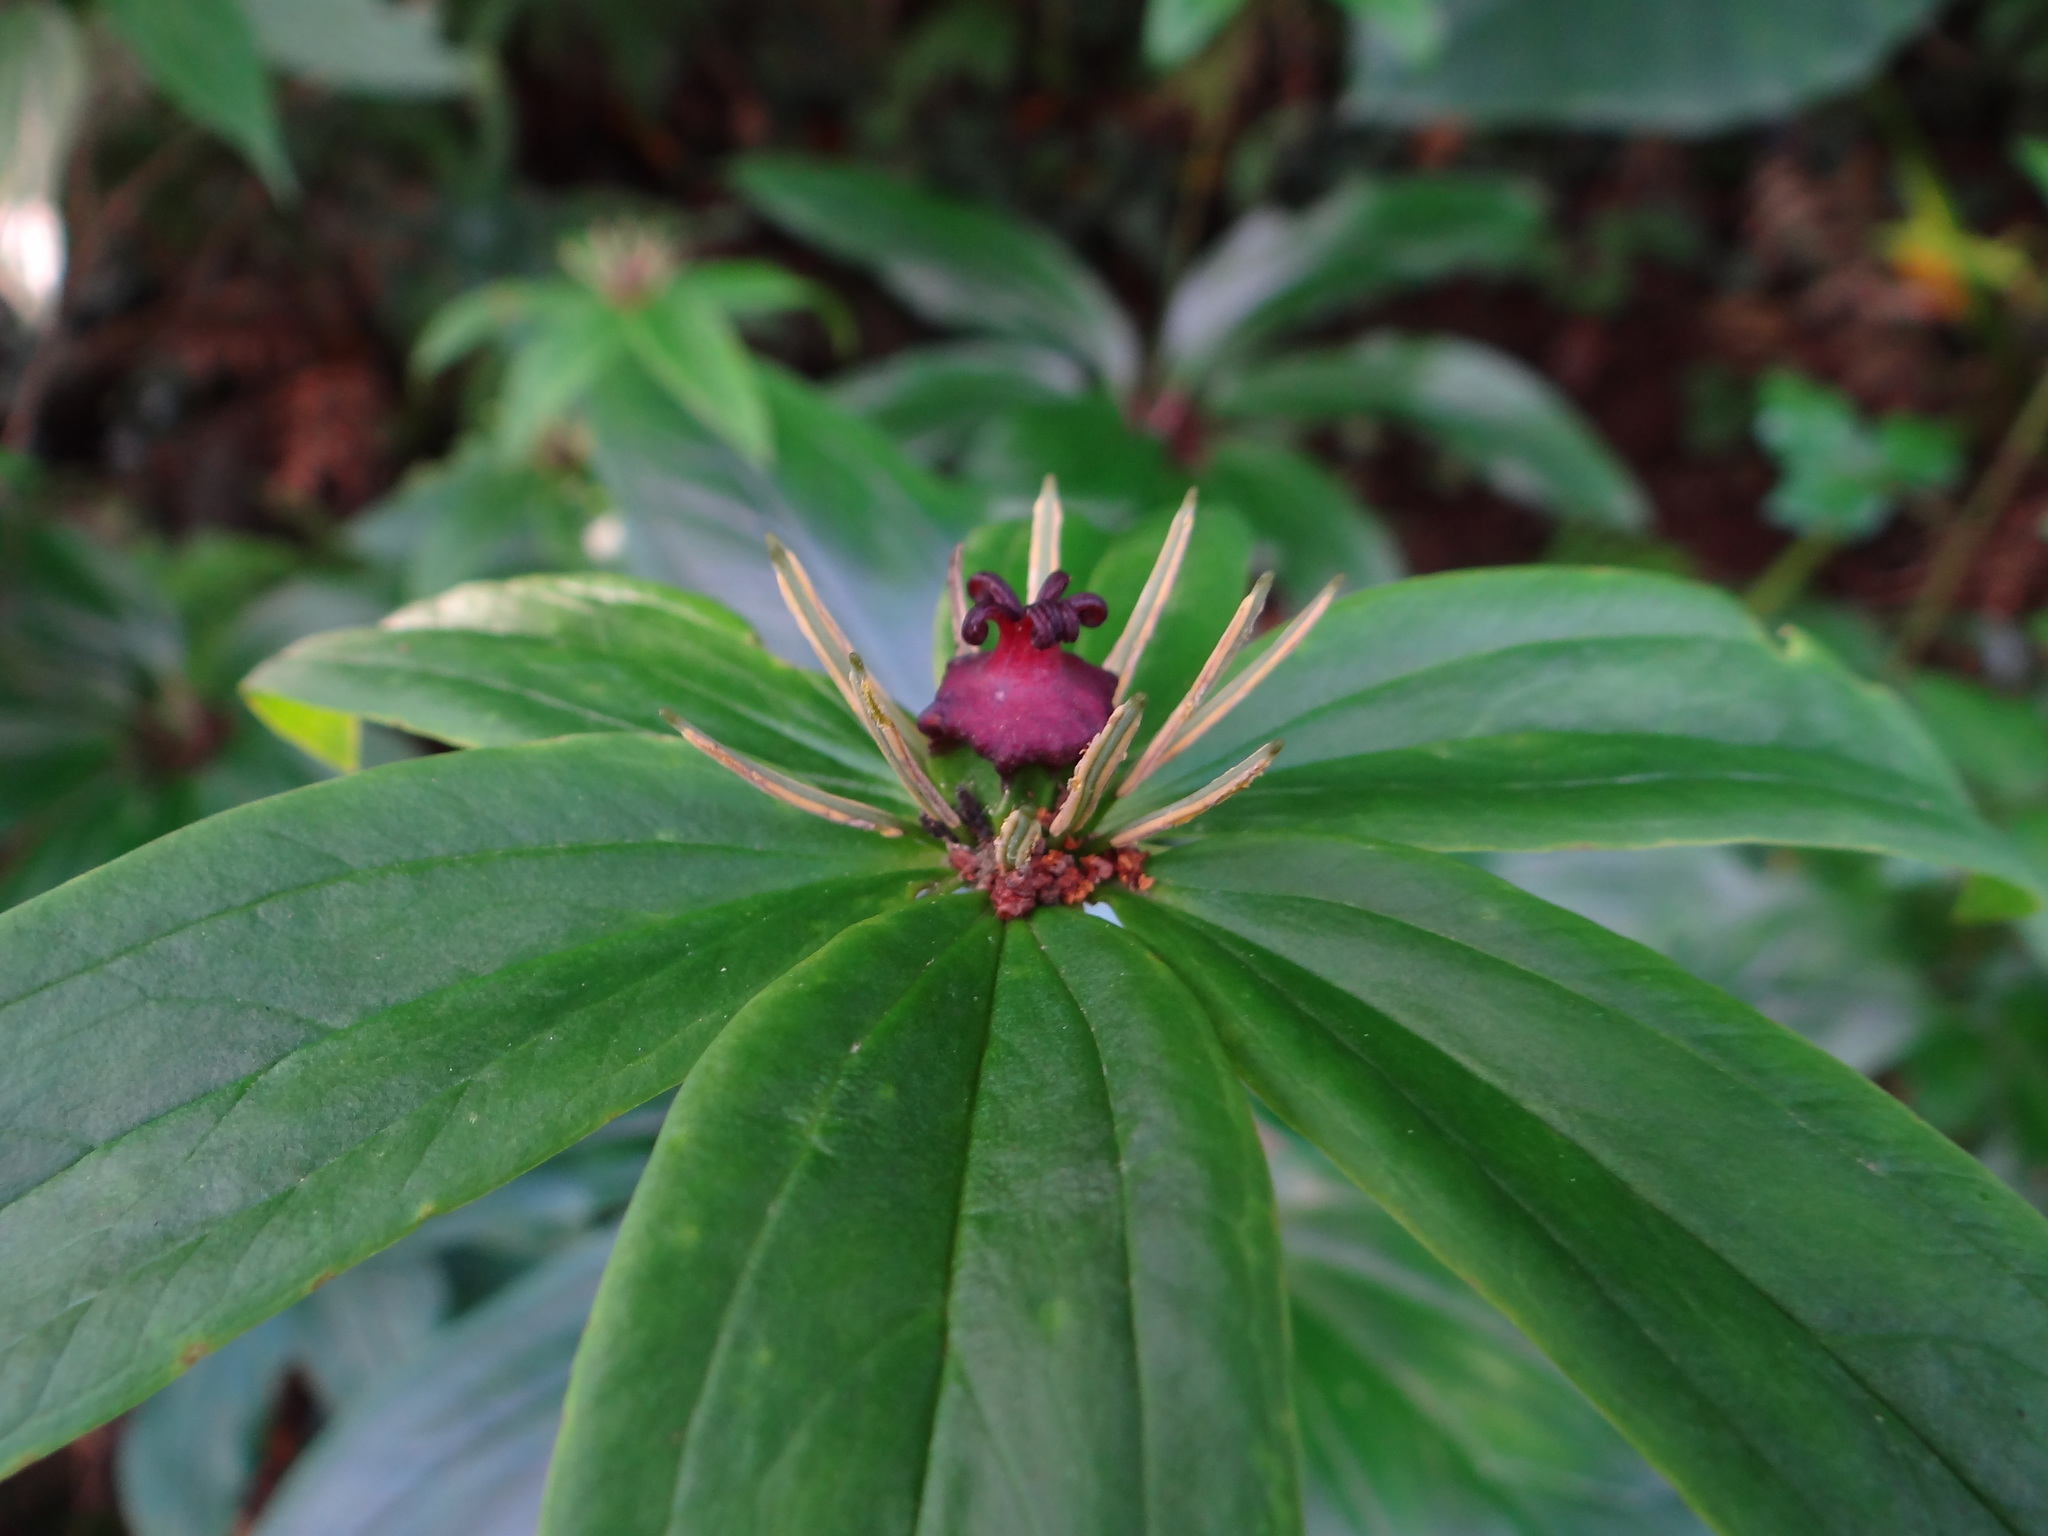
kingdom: Plantae
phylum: Tracheophyta
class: Liliopsida
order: Liliales
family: Melanthiaceae
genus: Paris
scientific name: Paris polyphylla
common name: Love apple
